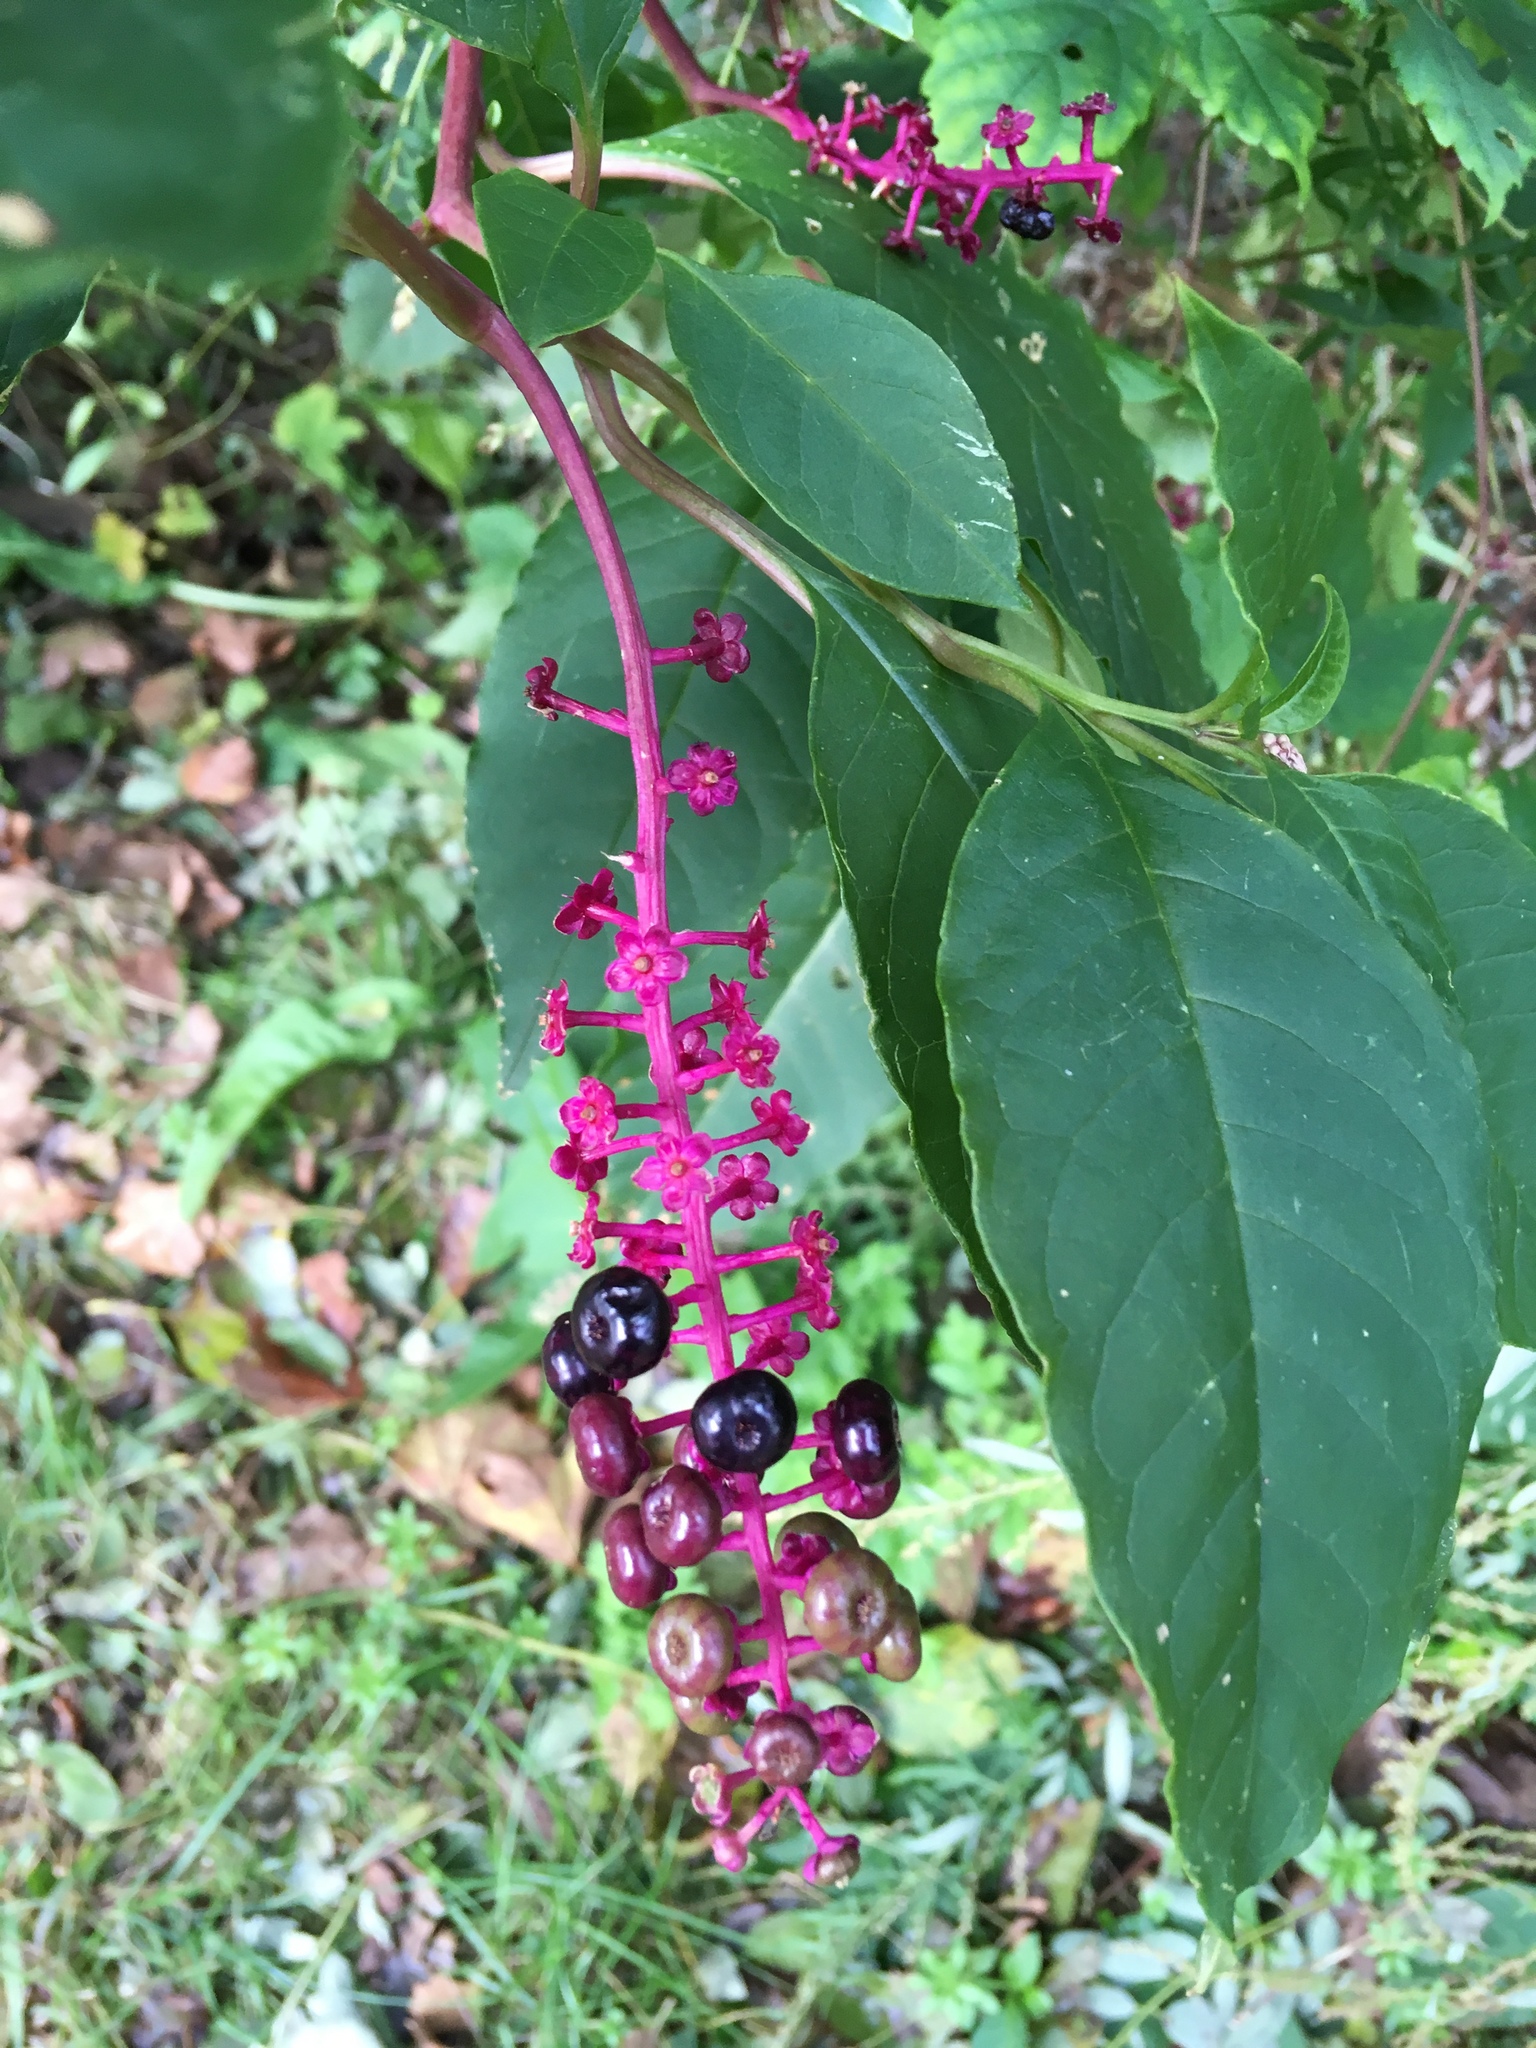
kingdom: Plantae
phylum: Tracheophyta
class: Magnoliopsida
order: Caryophyllales
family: Phytolaccaceae
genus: Phytolacca
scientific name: Phytolacca americana
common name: American pokeweed
